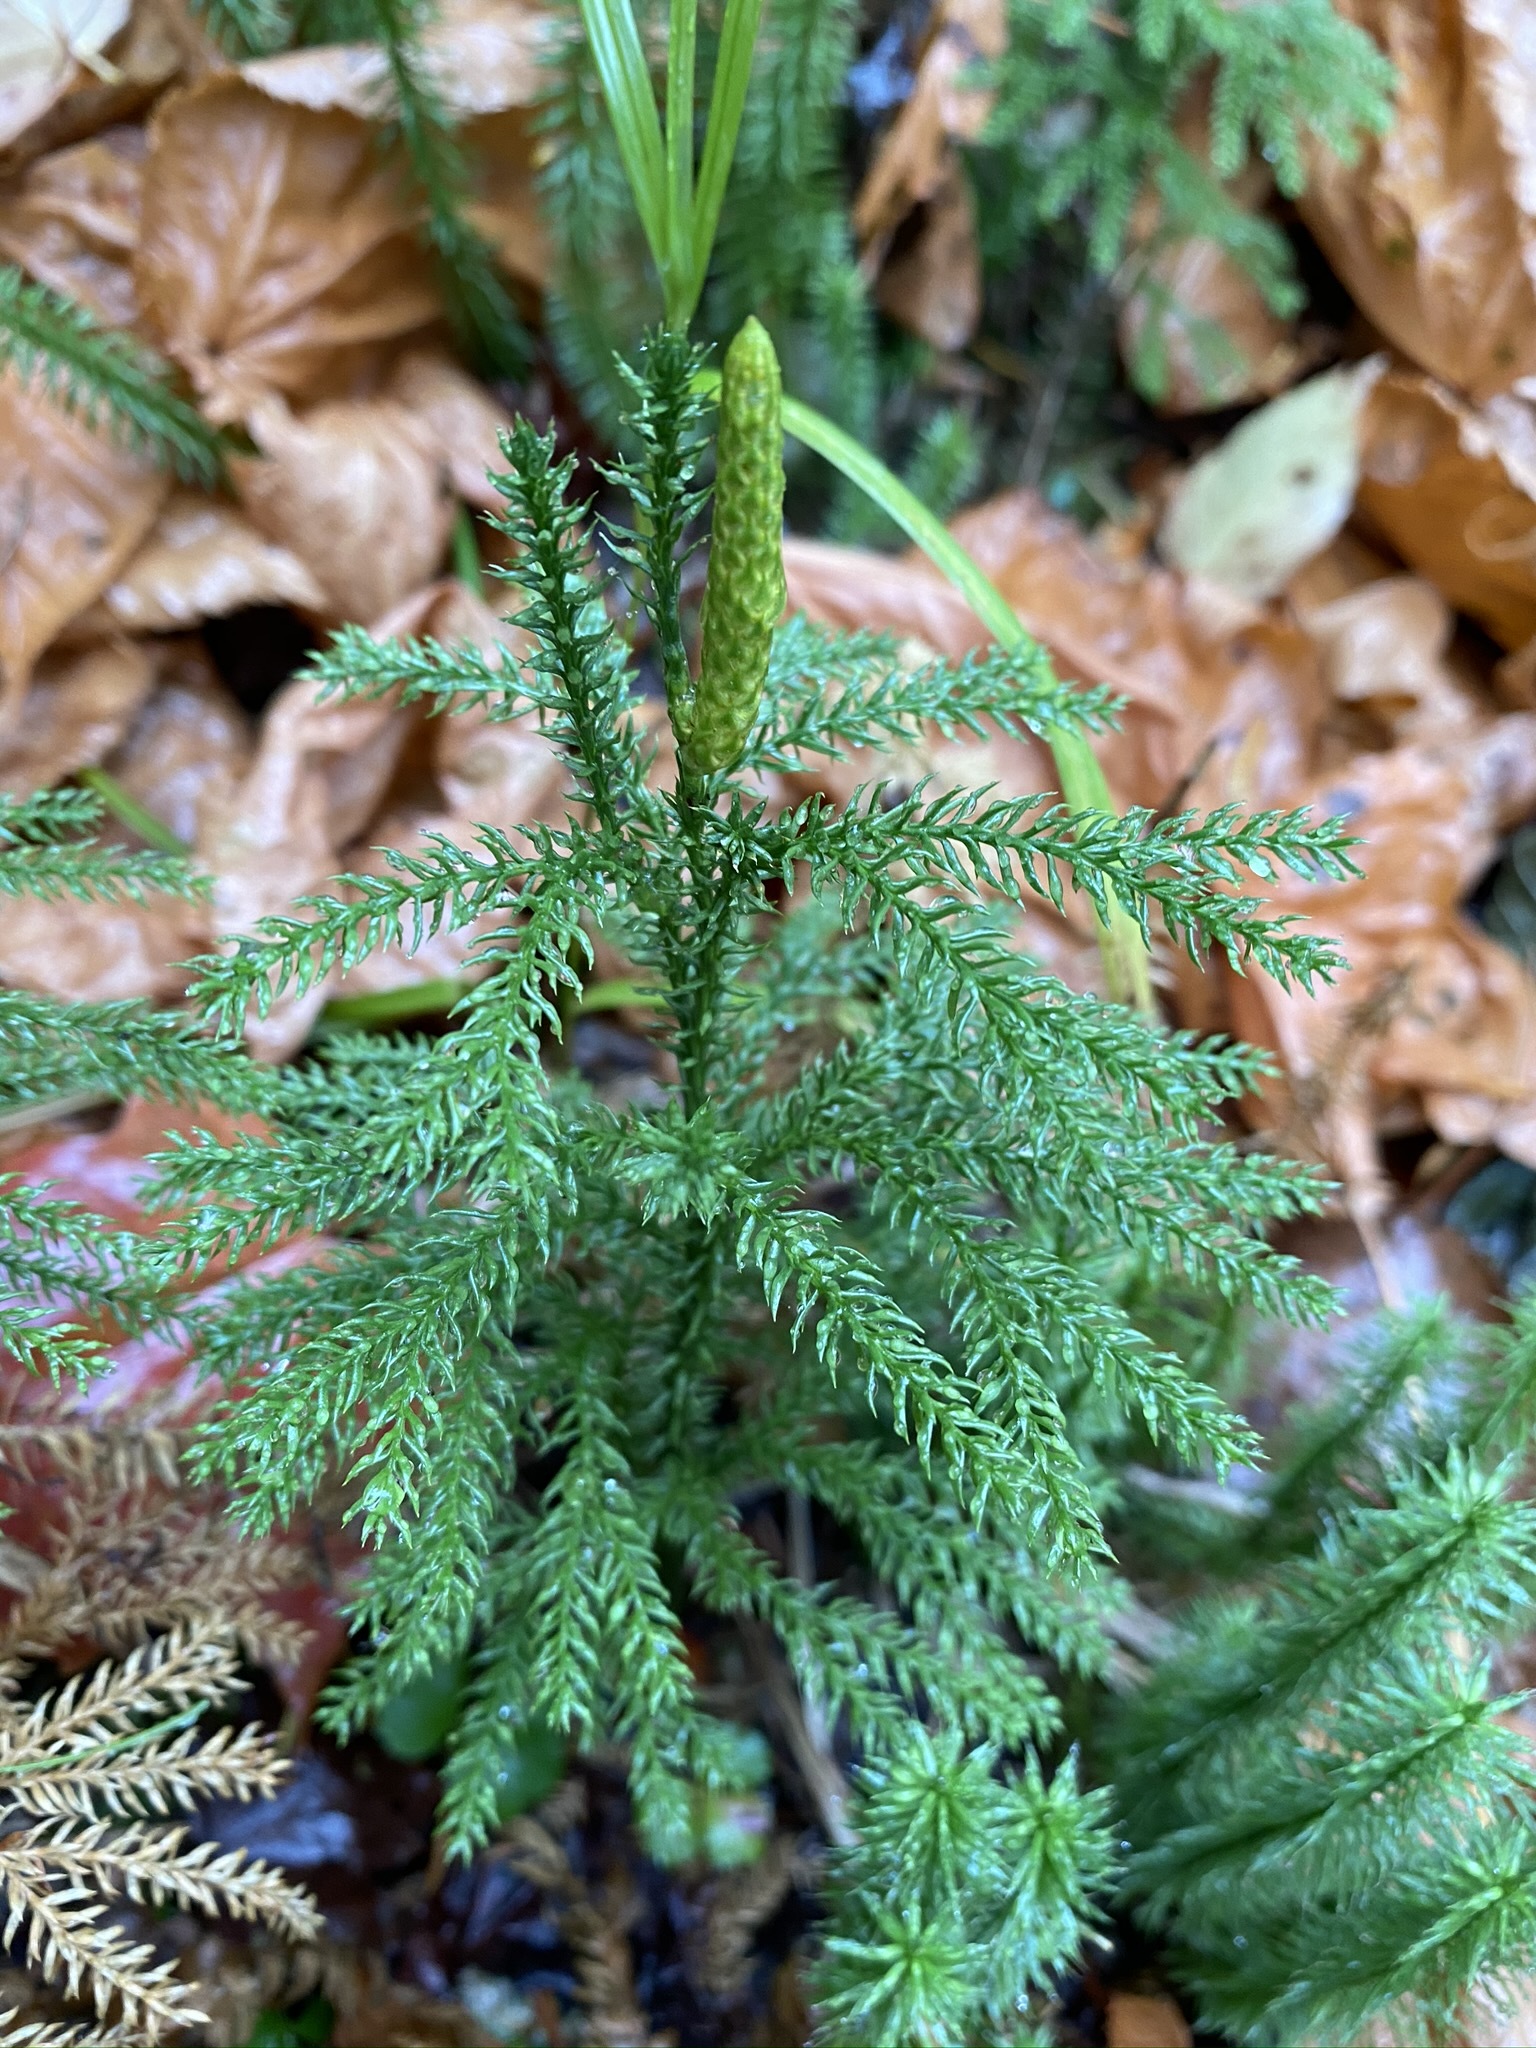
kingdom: Plantae
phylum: Tracheophyta
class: Lycopodiopsida
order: Lycopodiales
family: Lycopodiaceae
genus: Dendrolycopodium
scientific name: Dendrolycopodium dendroideum
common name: Northern tree-clubmoss
